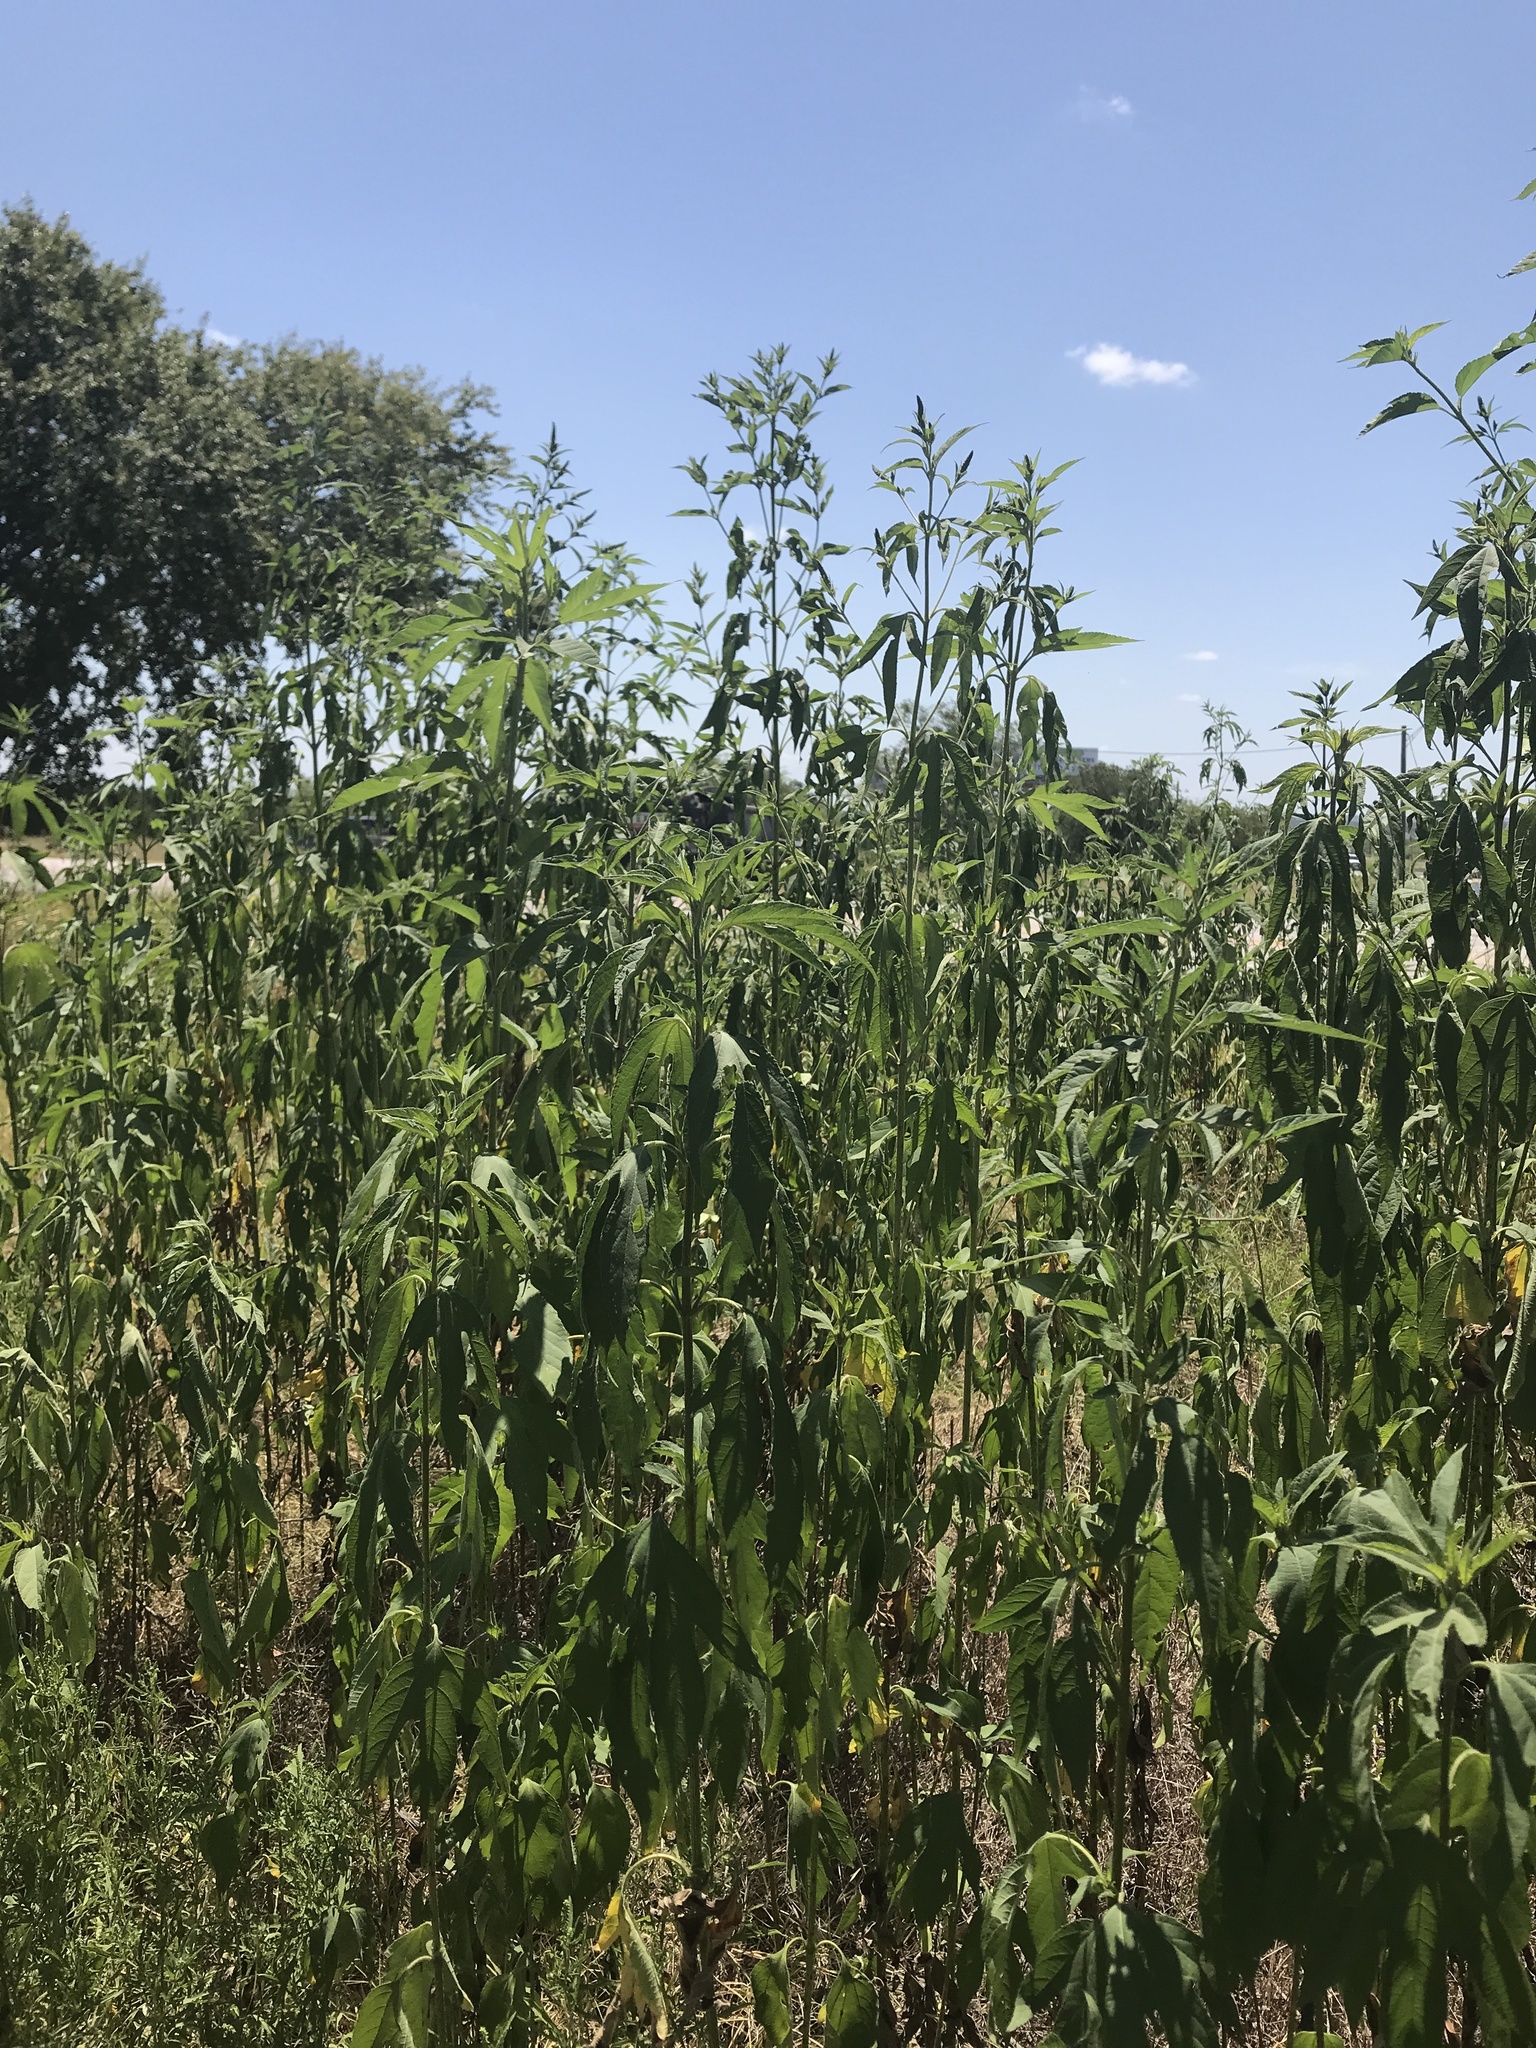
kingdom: Plantae
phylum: Tracheophyta
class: Magnoliopsida
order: Asterales
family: Asteraceae
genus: Ambrosia
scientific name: Ambrosia trifida
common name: Giant ragweed
